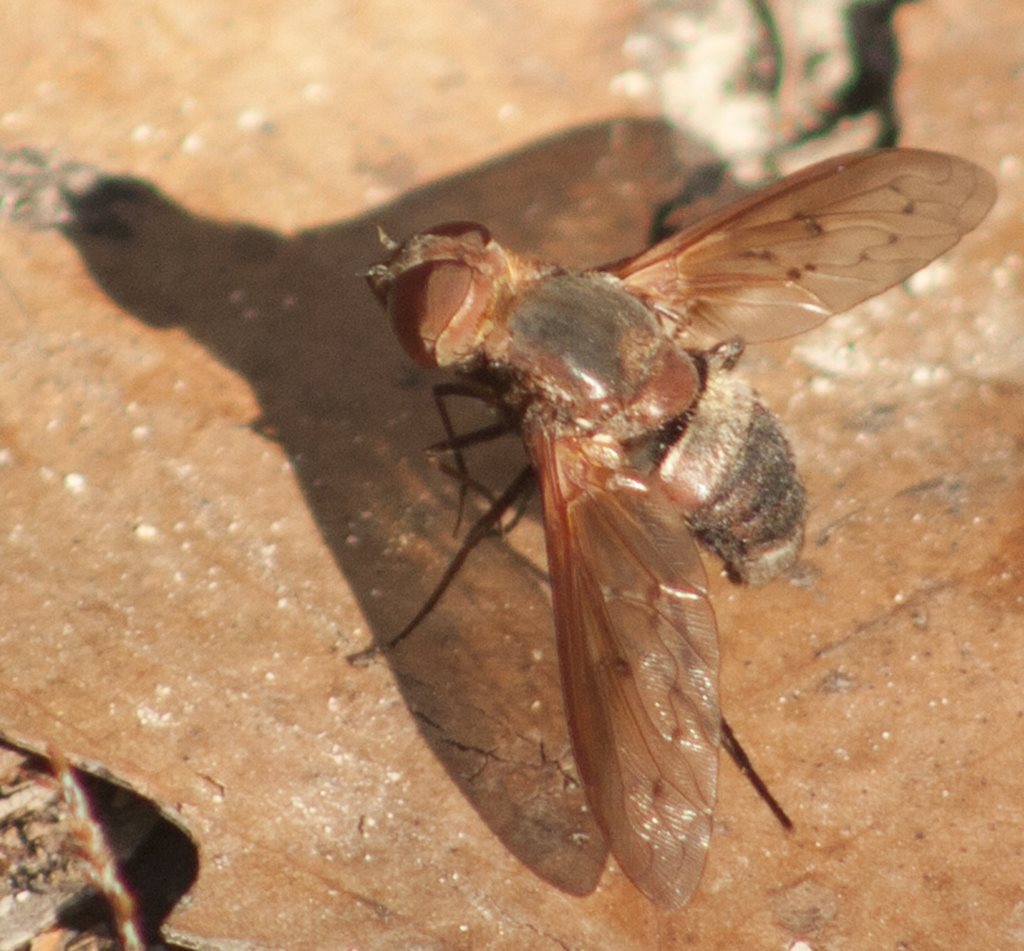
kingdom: Animalia
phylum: Arthropoda
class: Insecta
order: Diptera
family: Bombyliidae
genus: Ligyra
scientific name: Ligyra punctipennis
